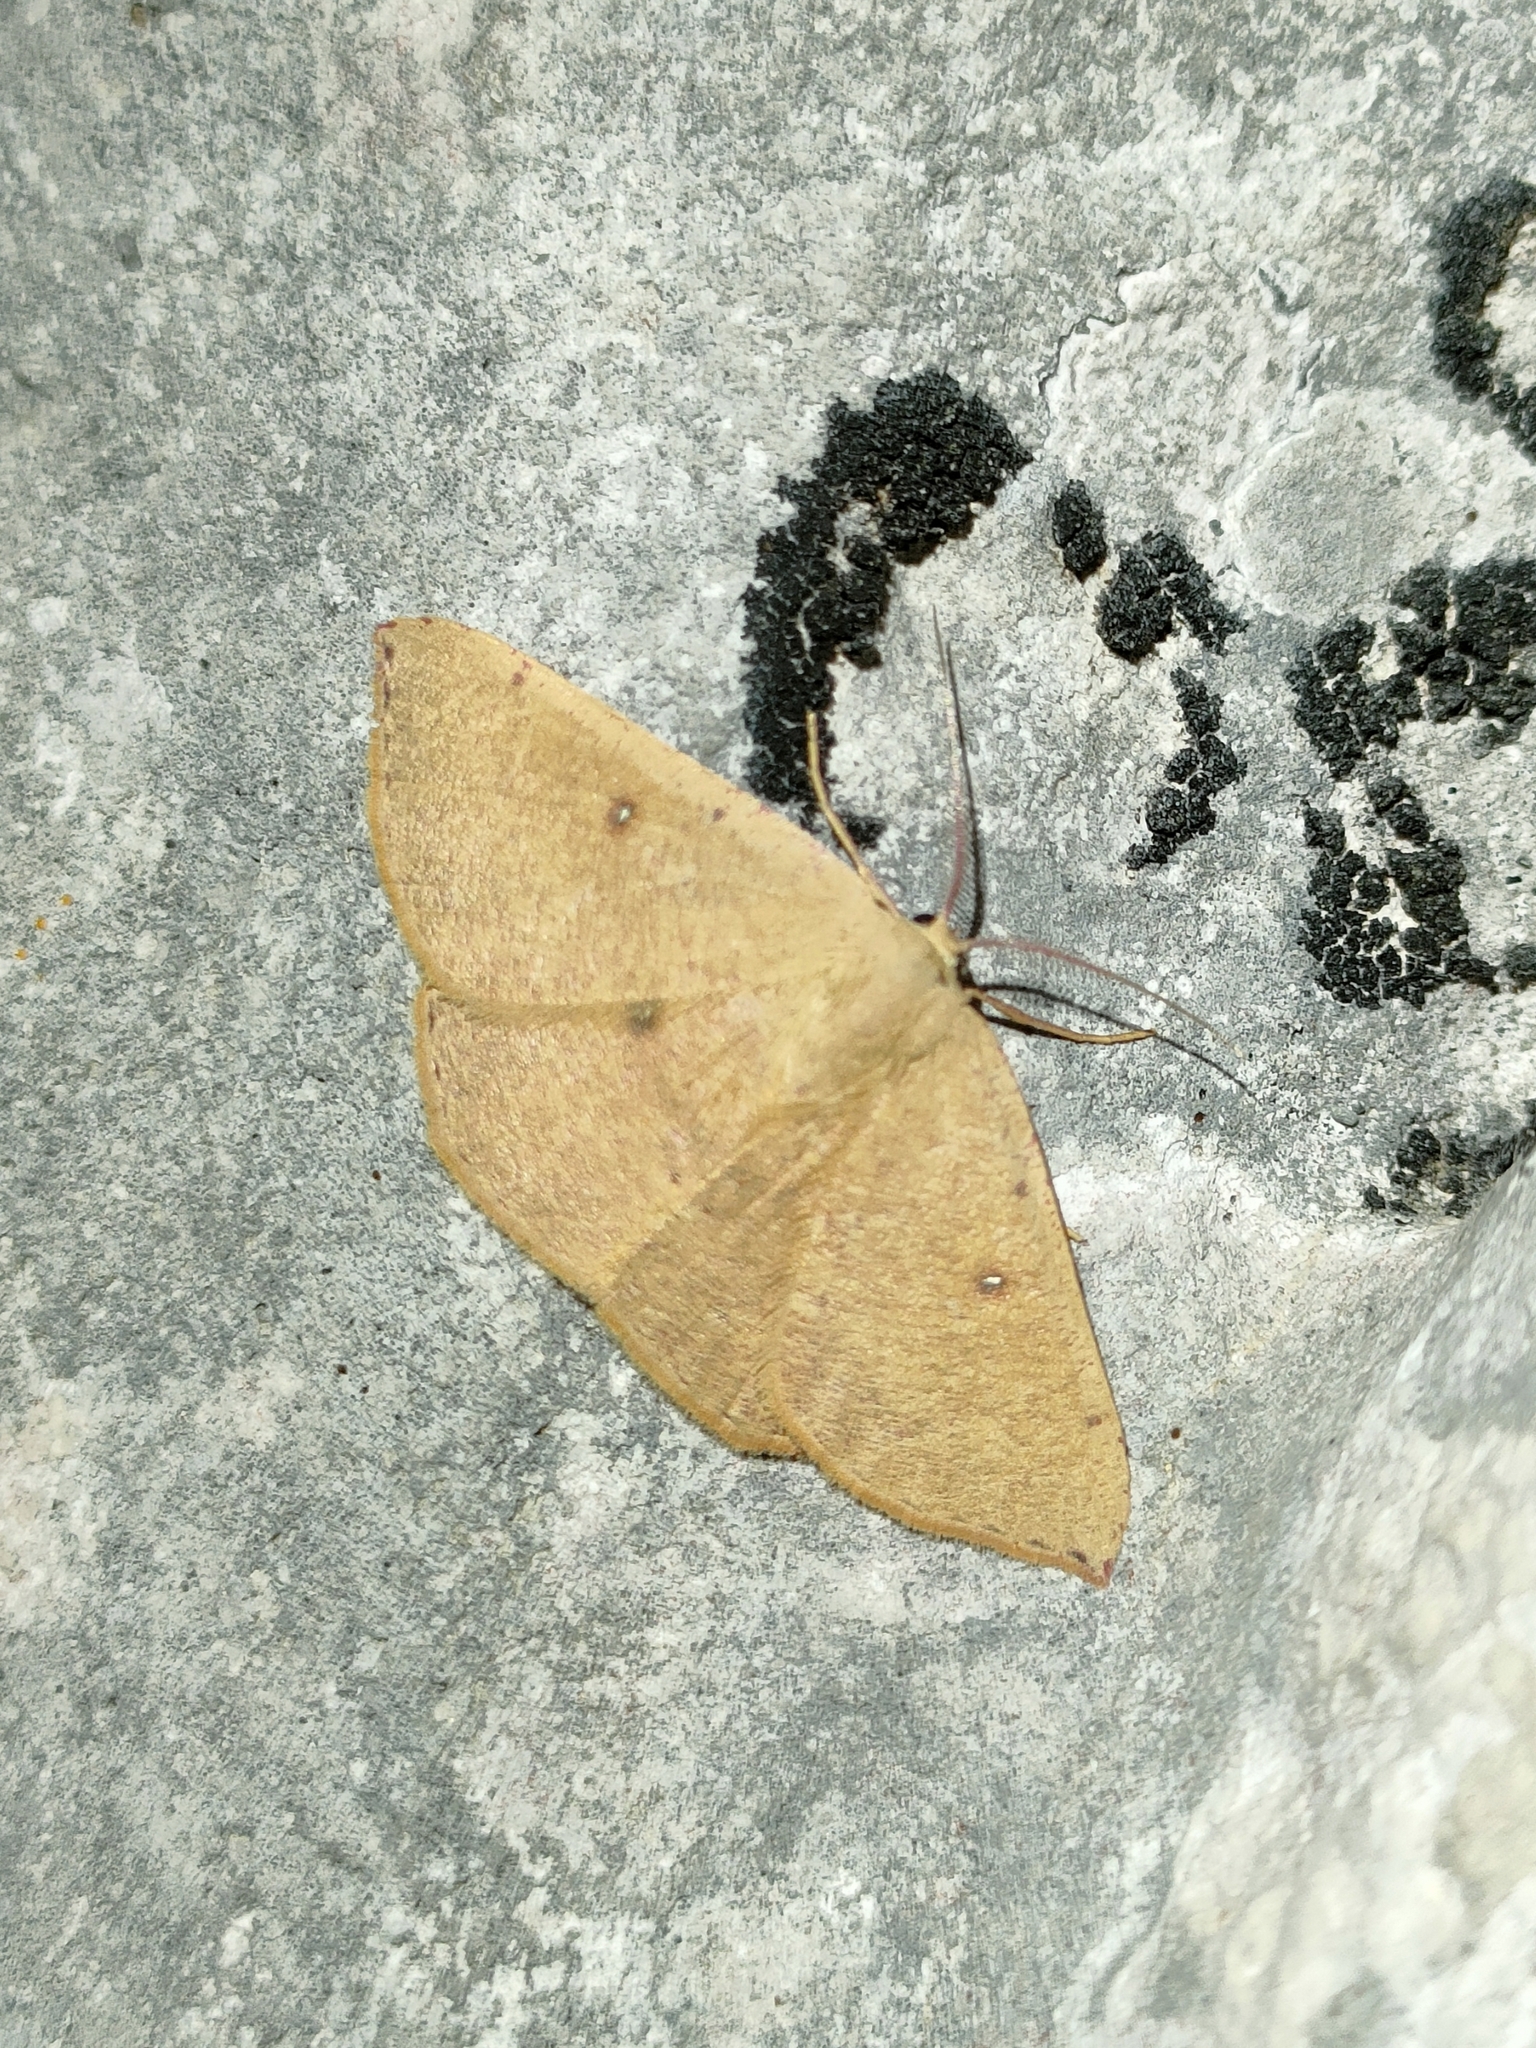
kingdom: Animalia
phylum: Arthropoda
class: Insecta
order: Lepidoptera
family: Geometridae
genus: Cyclophora
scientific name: Cyclophora puppillaria
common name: Blair's mocha
